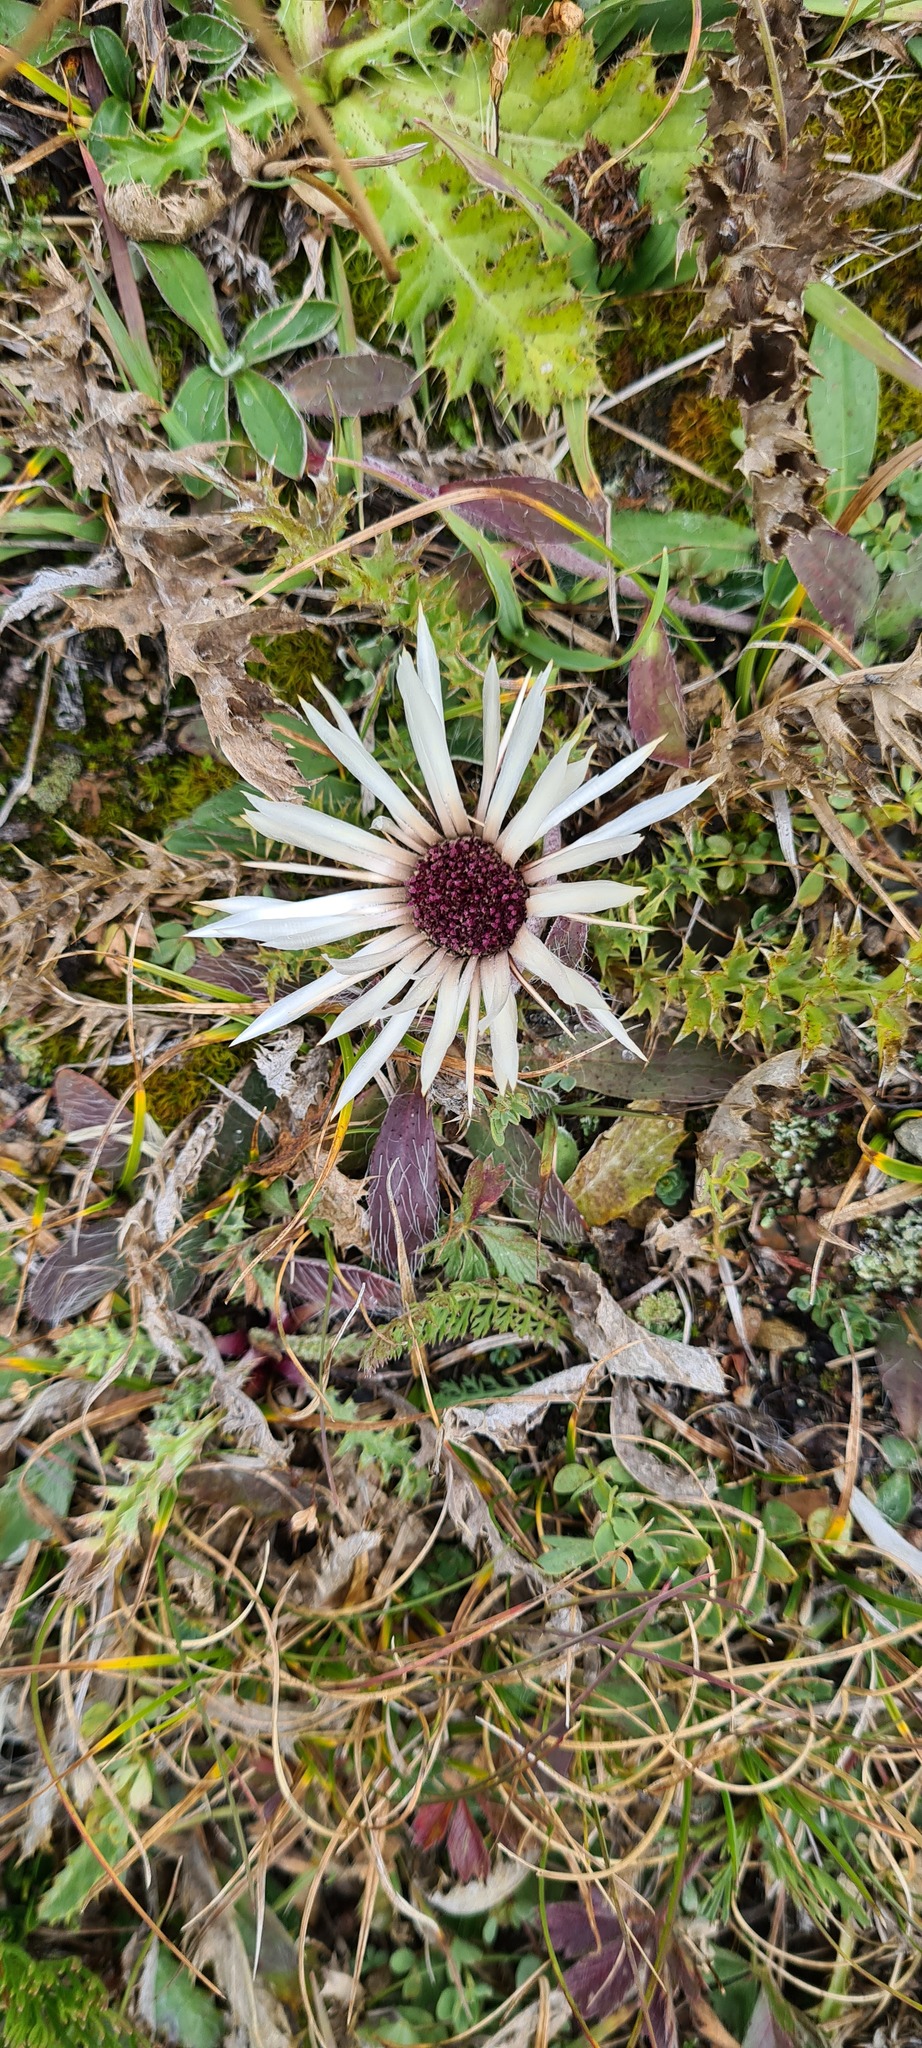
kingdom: Plantae
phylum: Tracheophyta
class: Magnoliopsida
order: Asterales
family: Asteraceae
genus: Carlina
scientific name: Carlina vulgaris
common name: Carline thistle
